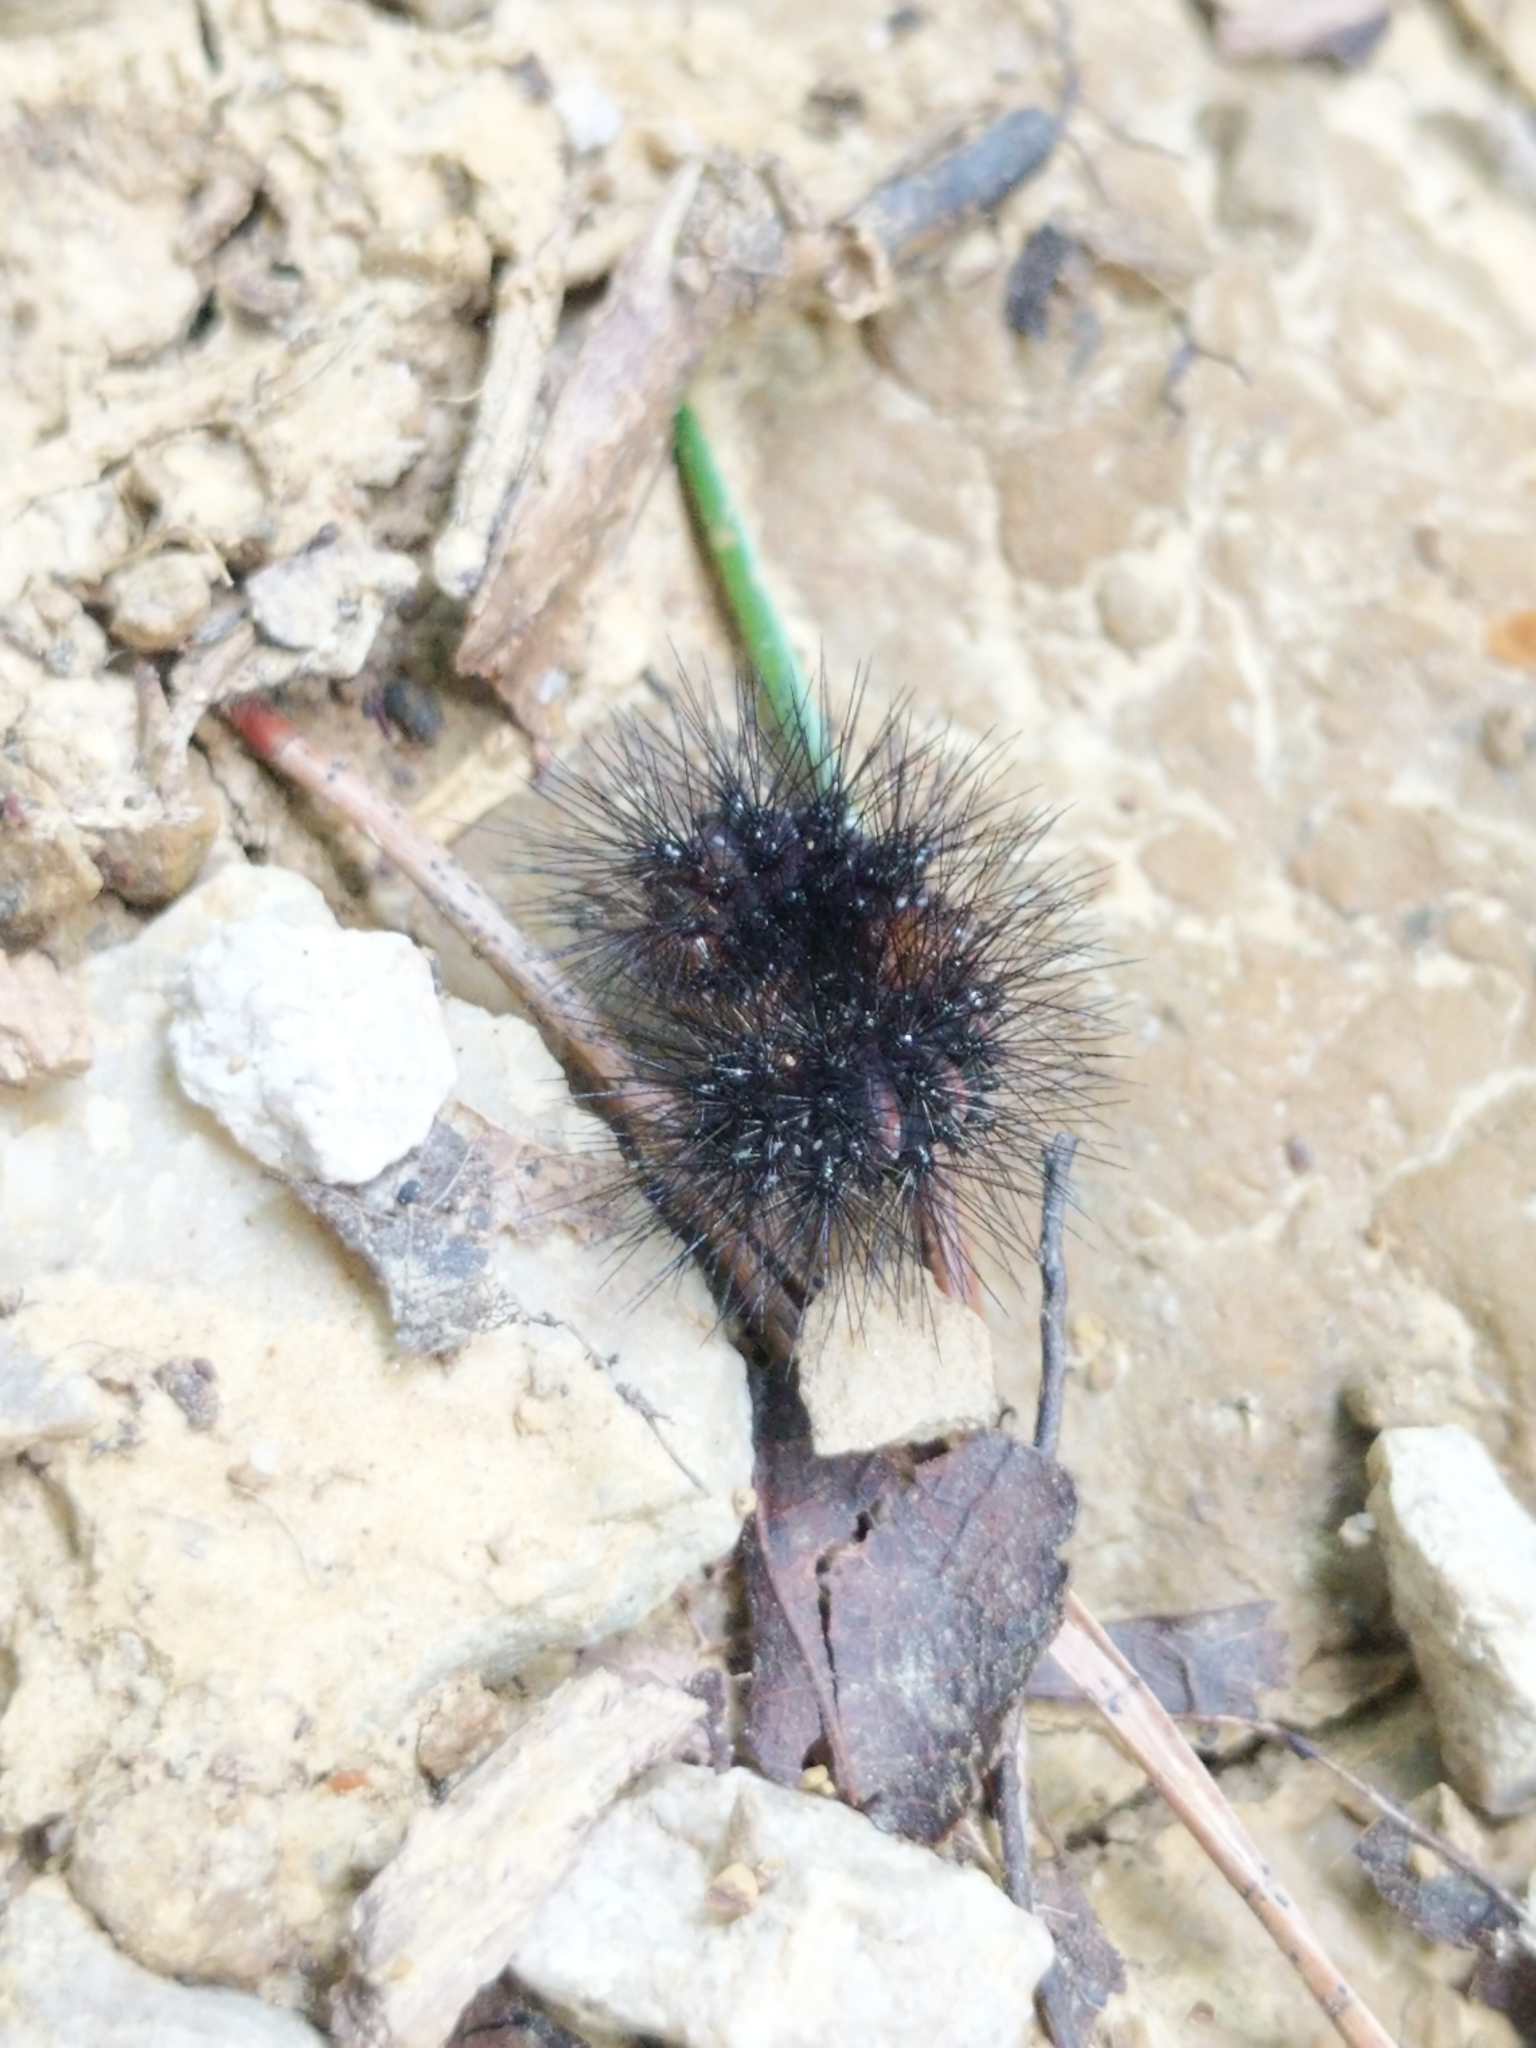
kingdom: Animalia
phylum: Arthropoda
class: Insecta
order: Lepidoptera
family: Erebidae
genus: Hypercompe
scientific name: Hypercompe scribonia
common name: Giant leopard moth
